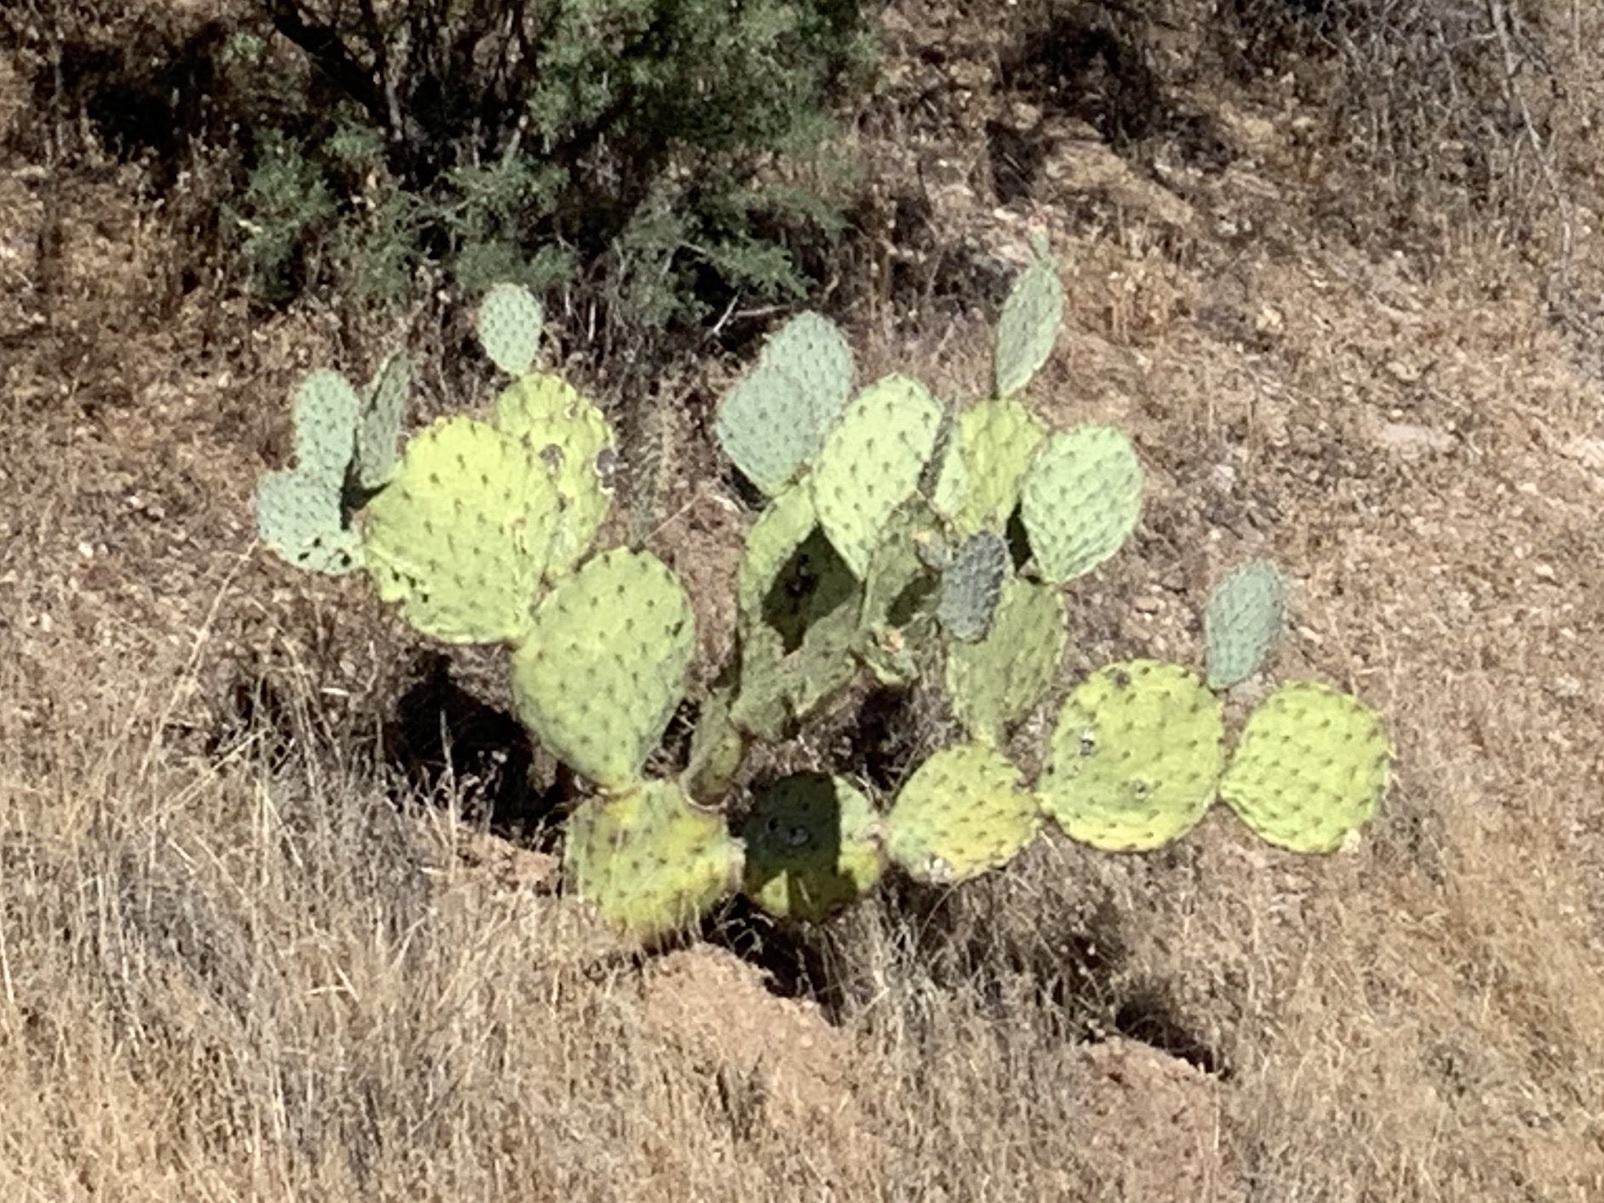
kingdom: Plantae
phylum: Tracheophyta
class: Magnoliopsida
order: Caryophyllales
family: Cactaceae
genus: Opuntia
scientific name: Opuntia engelmannii
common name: Cactus-apple
